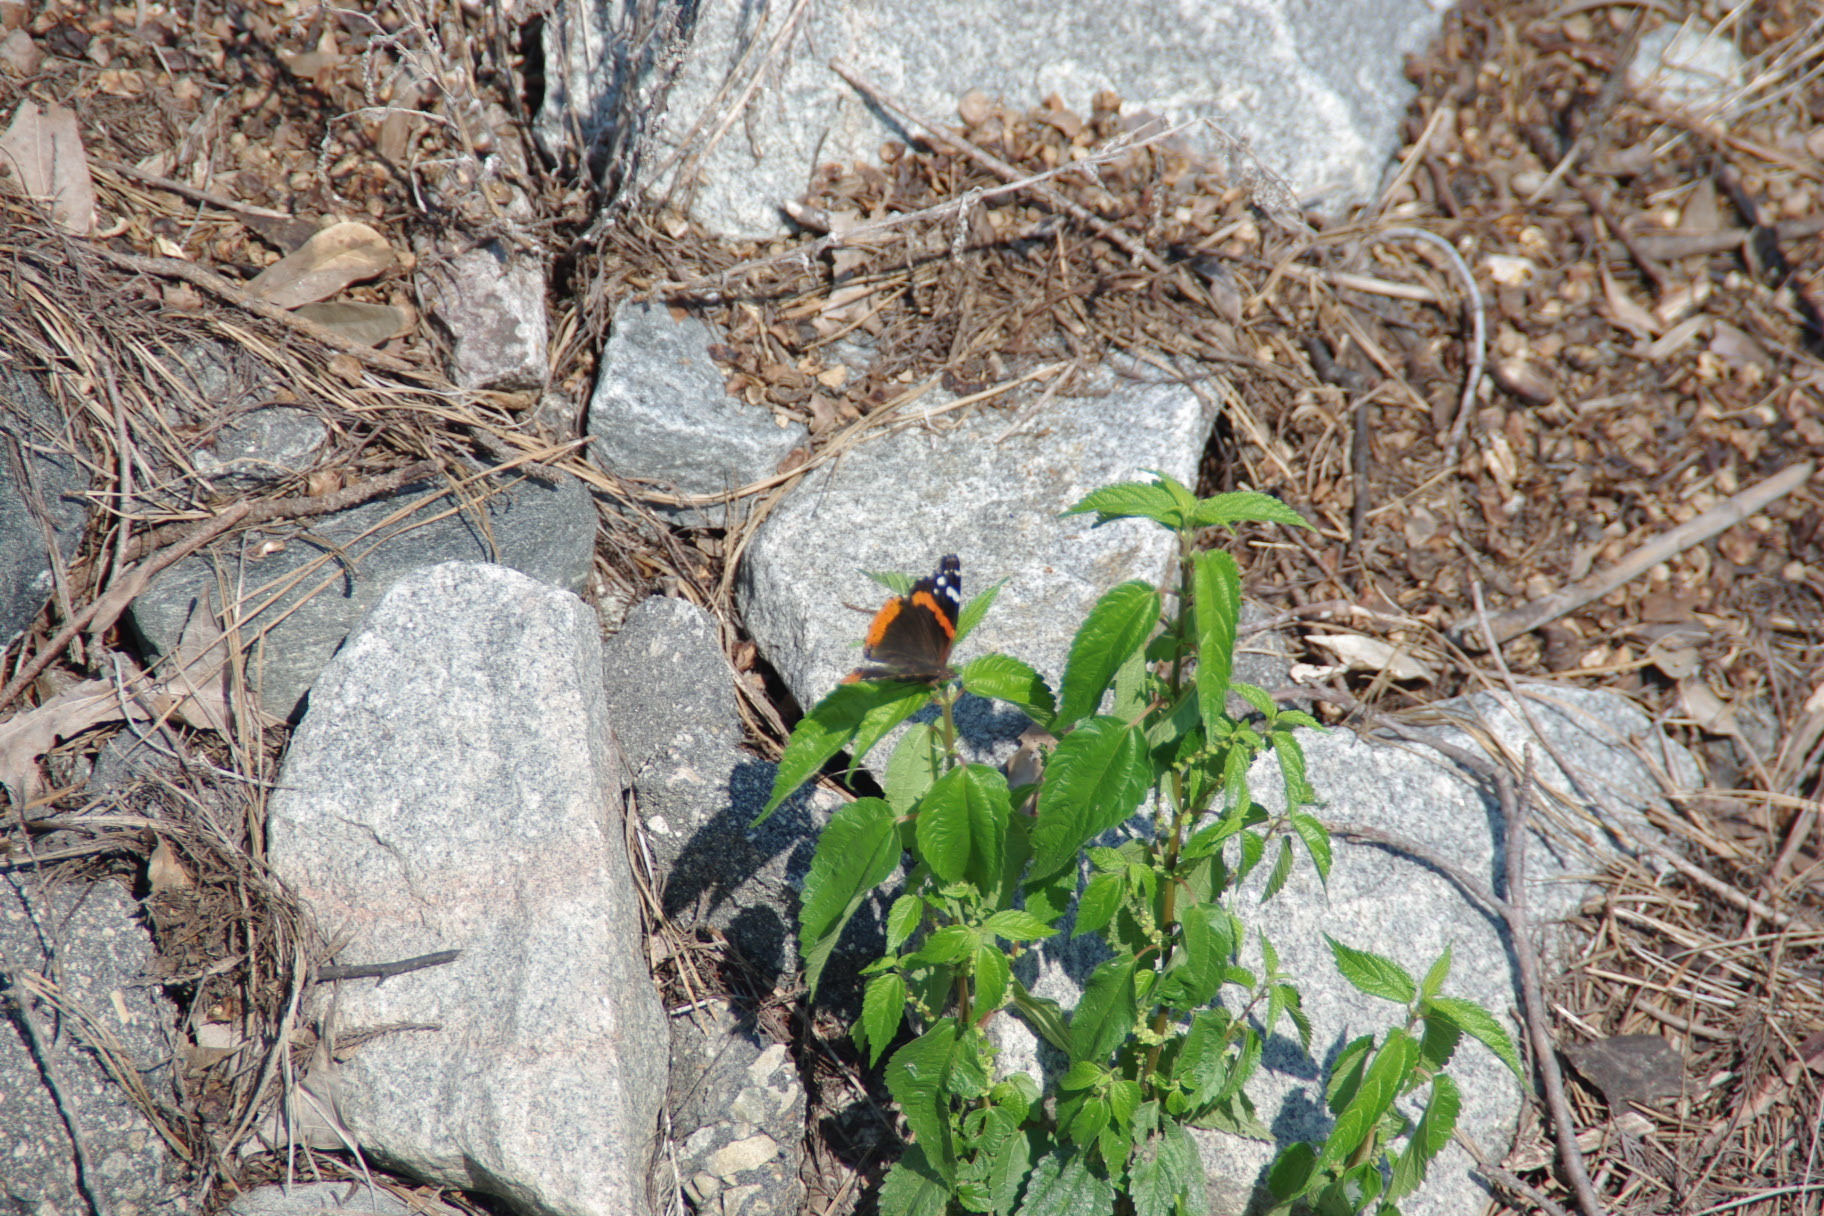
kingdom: Animalia
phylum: Arthropoda
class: Insecta
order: Lepidoptera
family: Nymphalidae
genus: Vanessa
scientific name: Vanessa atalanta
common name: Red admiral
